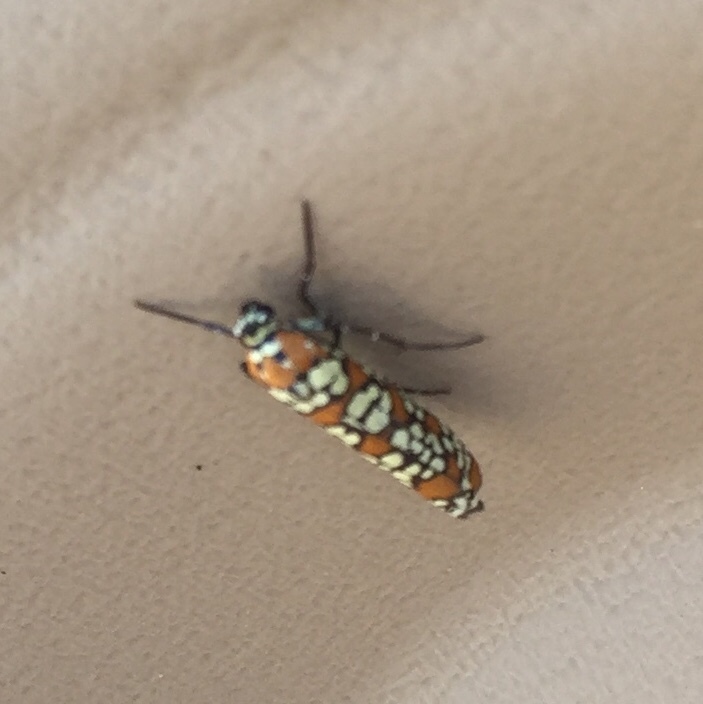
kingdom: Animalia
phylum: Arthropoda
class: Insecta
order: Lepidoptera
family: Attevidae
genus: Atteva
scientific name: Atteva punctella
